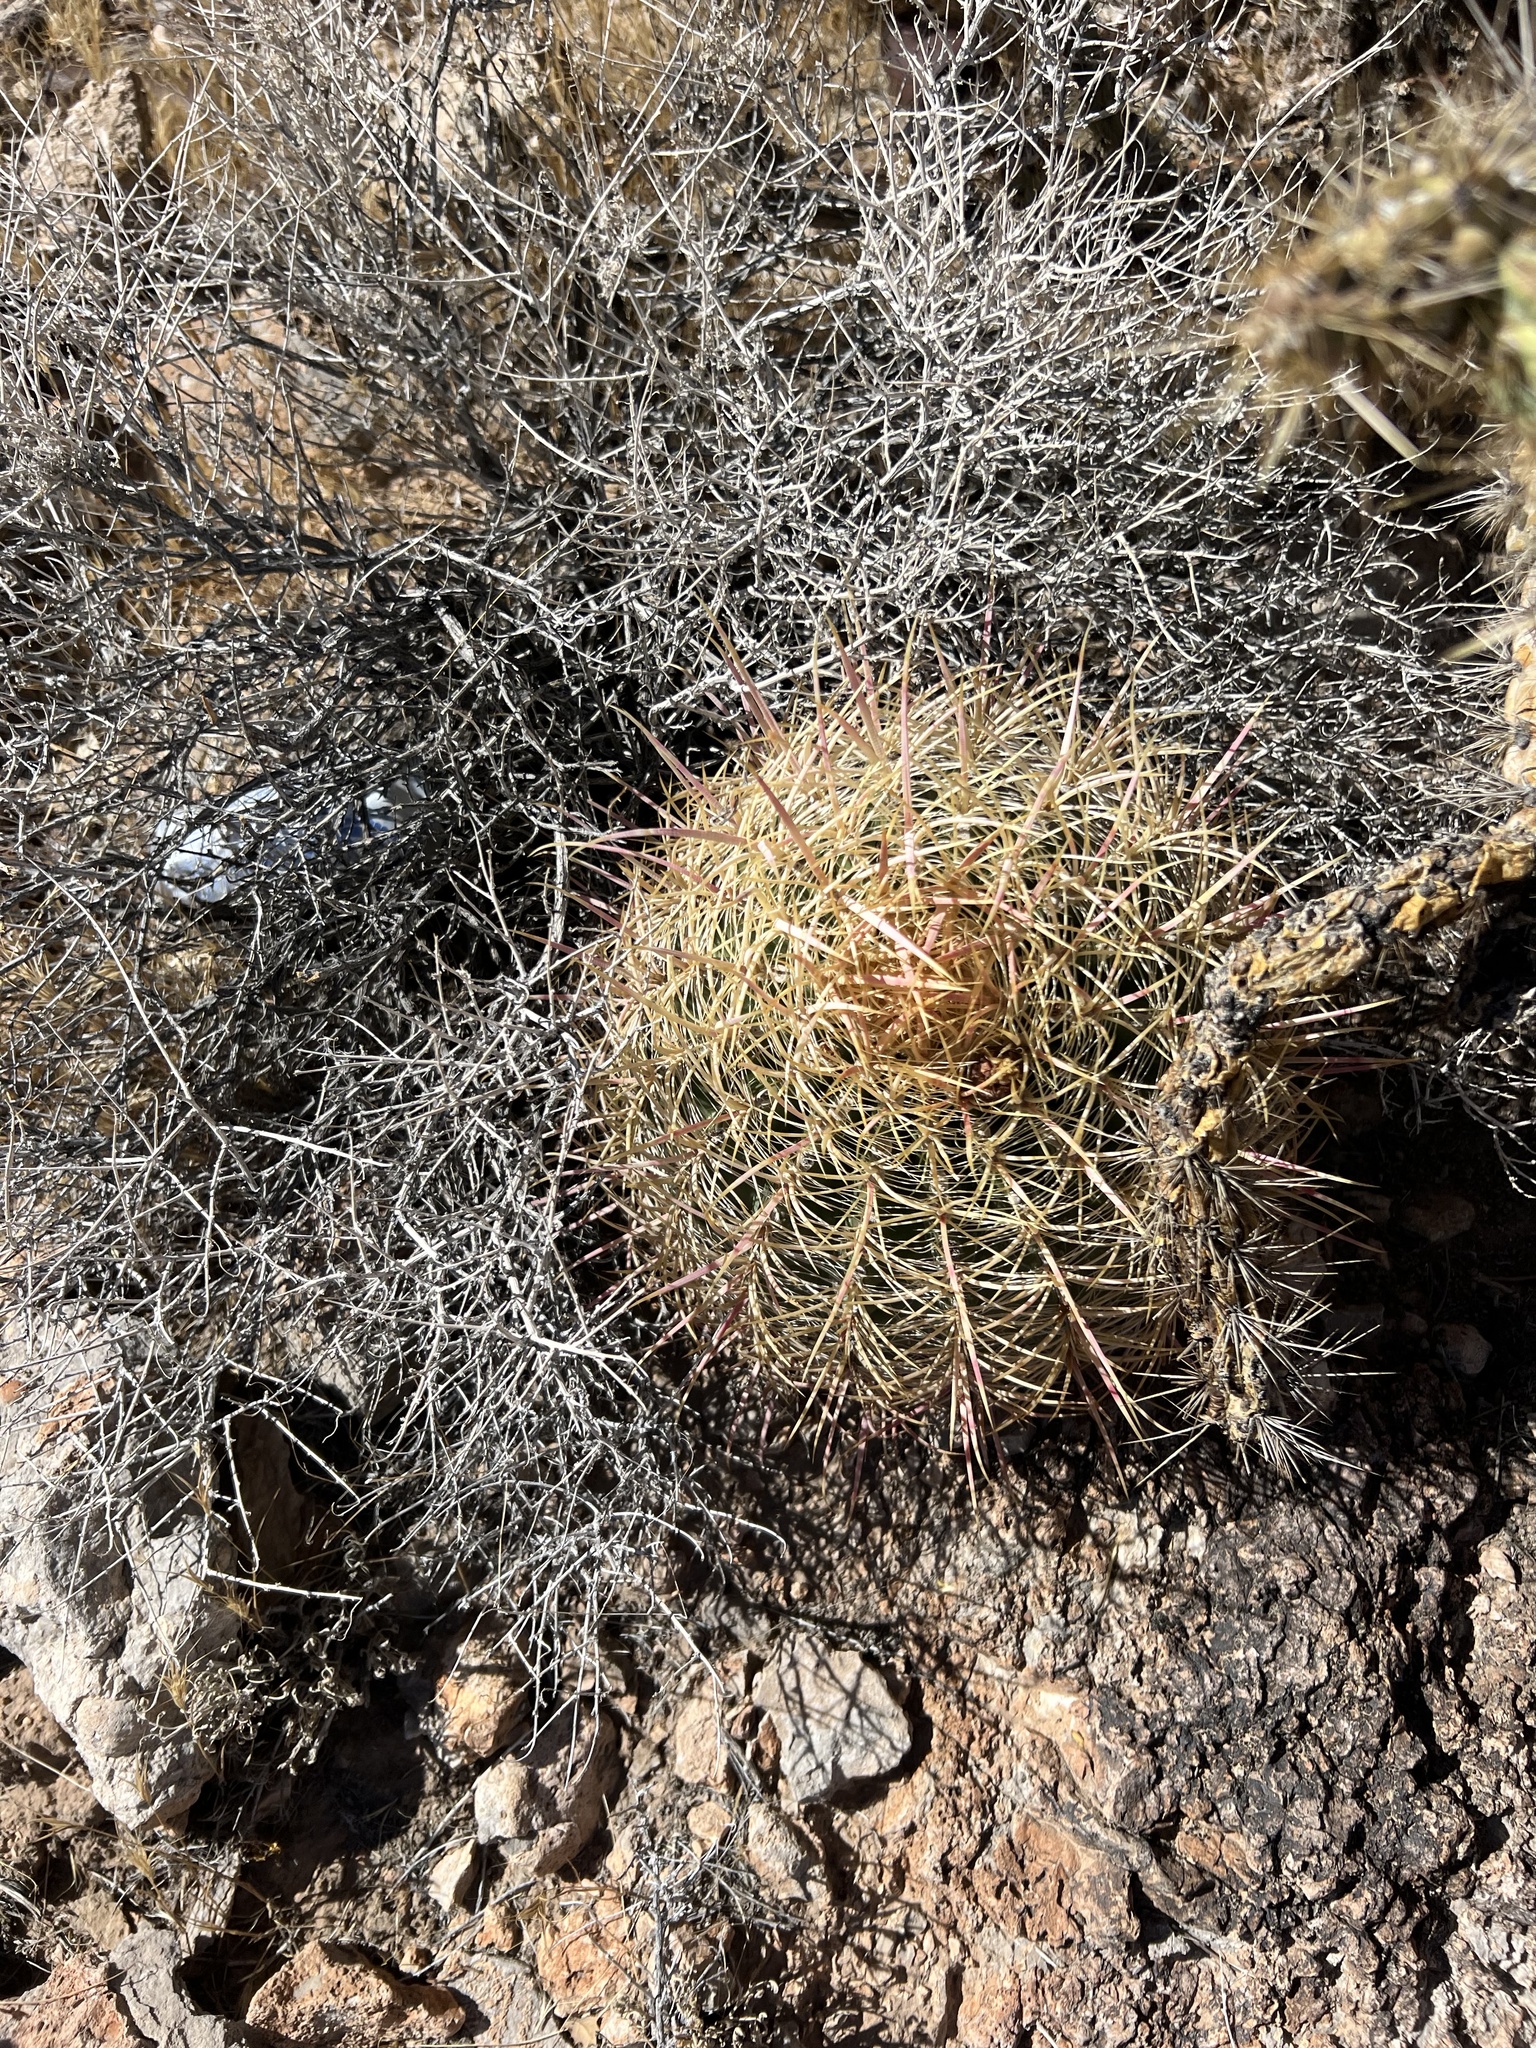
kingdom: Plantae
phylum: Tracheophyta
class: Magnoliopsida
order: Caryophyllales
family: Cactaceae
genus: Ferocactus
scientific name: Ferocactus cylindraceus
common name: California barrel cactus
